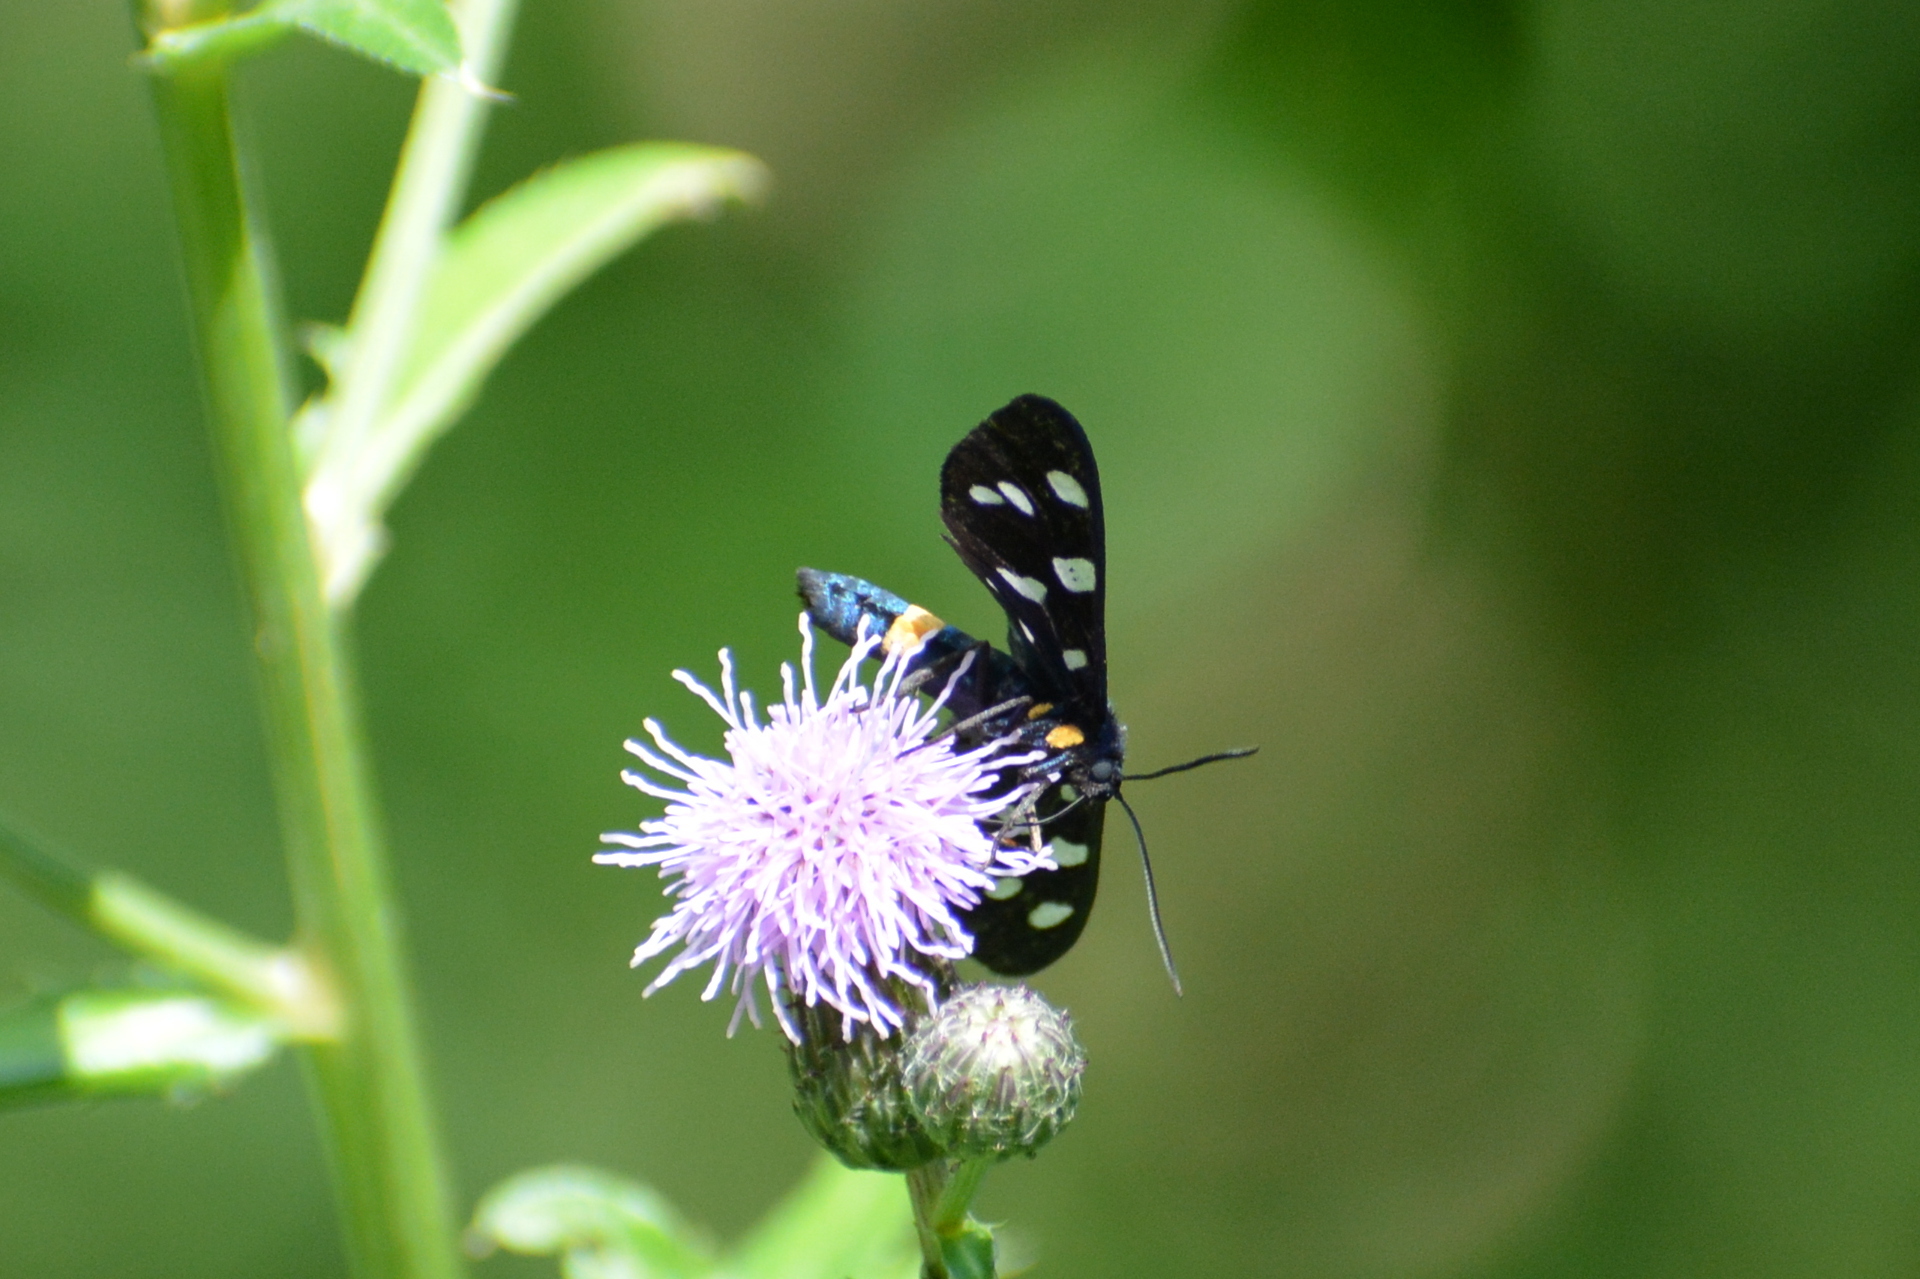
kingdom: Animalia
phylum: Arthropoda
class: Insecta
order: Lepidoptera
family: Erebidae
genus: Amata
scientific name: Amata phegea
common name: Nine-spotted
